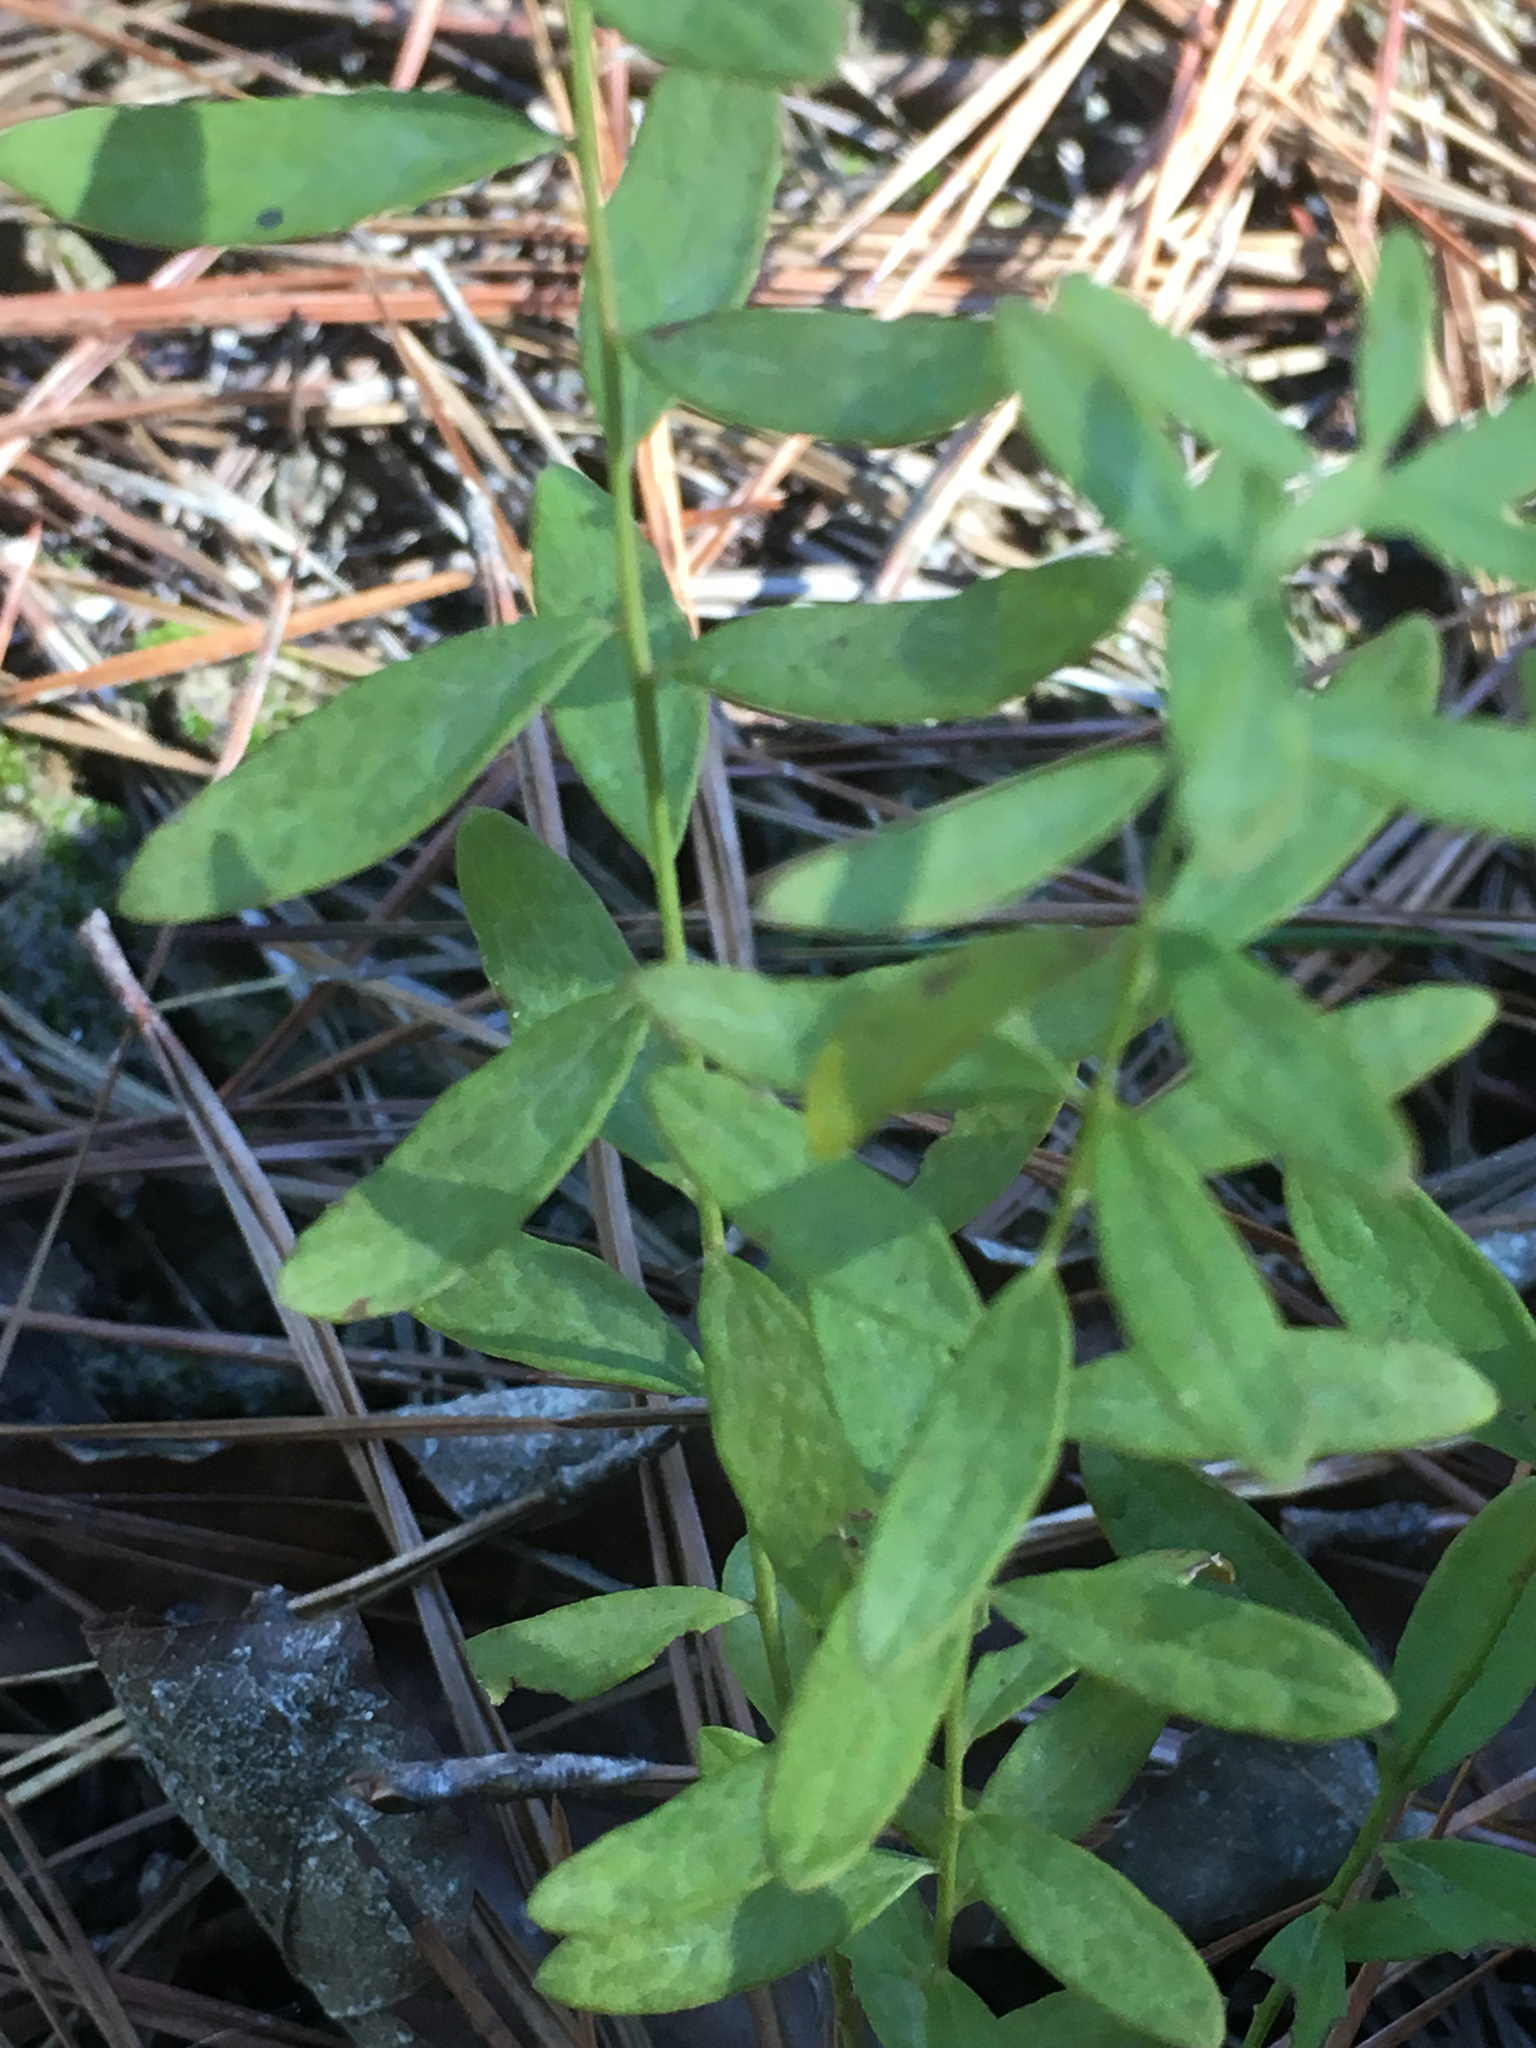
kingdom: Plantae
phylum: Tracheophyta
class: Magnoliopsida
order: Santalales
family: Comandraceae
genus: Comandra
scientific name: Comandra umbellata
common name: Bastard toadflax
